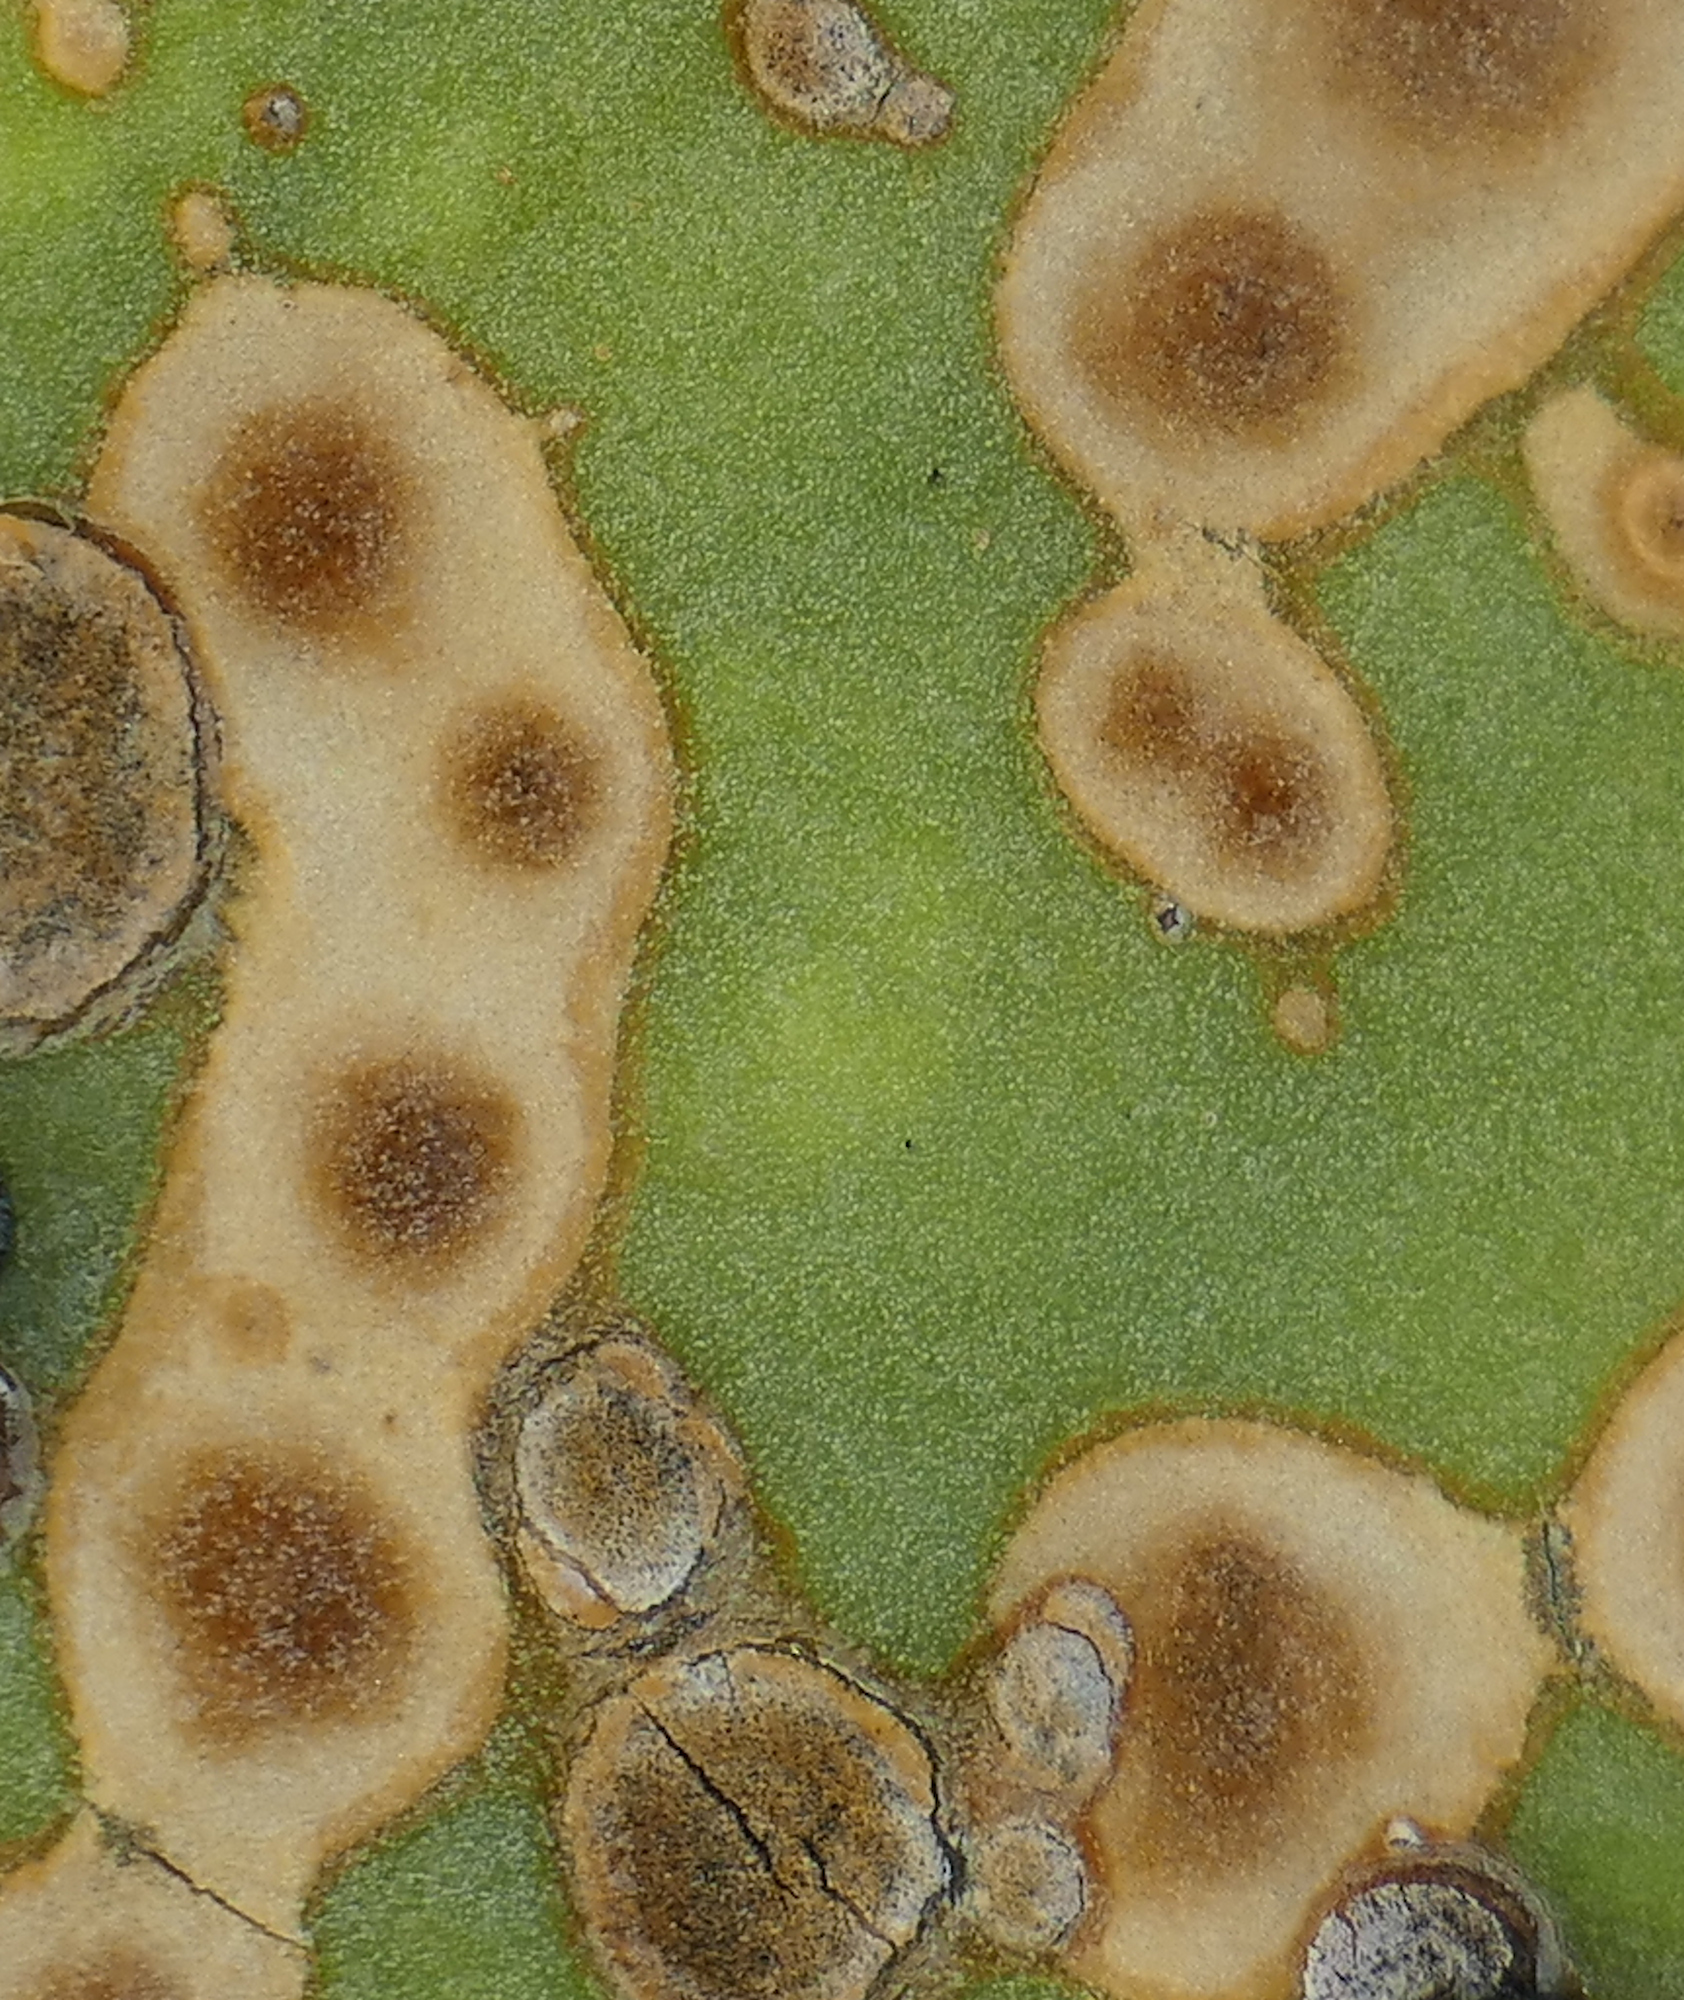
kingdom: Fungi
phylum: Ascomycota
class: Dothideomycetes
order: Botryosphaeriales
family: Phyllostictaceae
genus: Phyllosticta
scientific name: Phyllosticta concava
